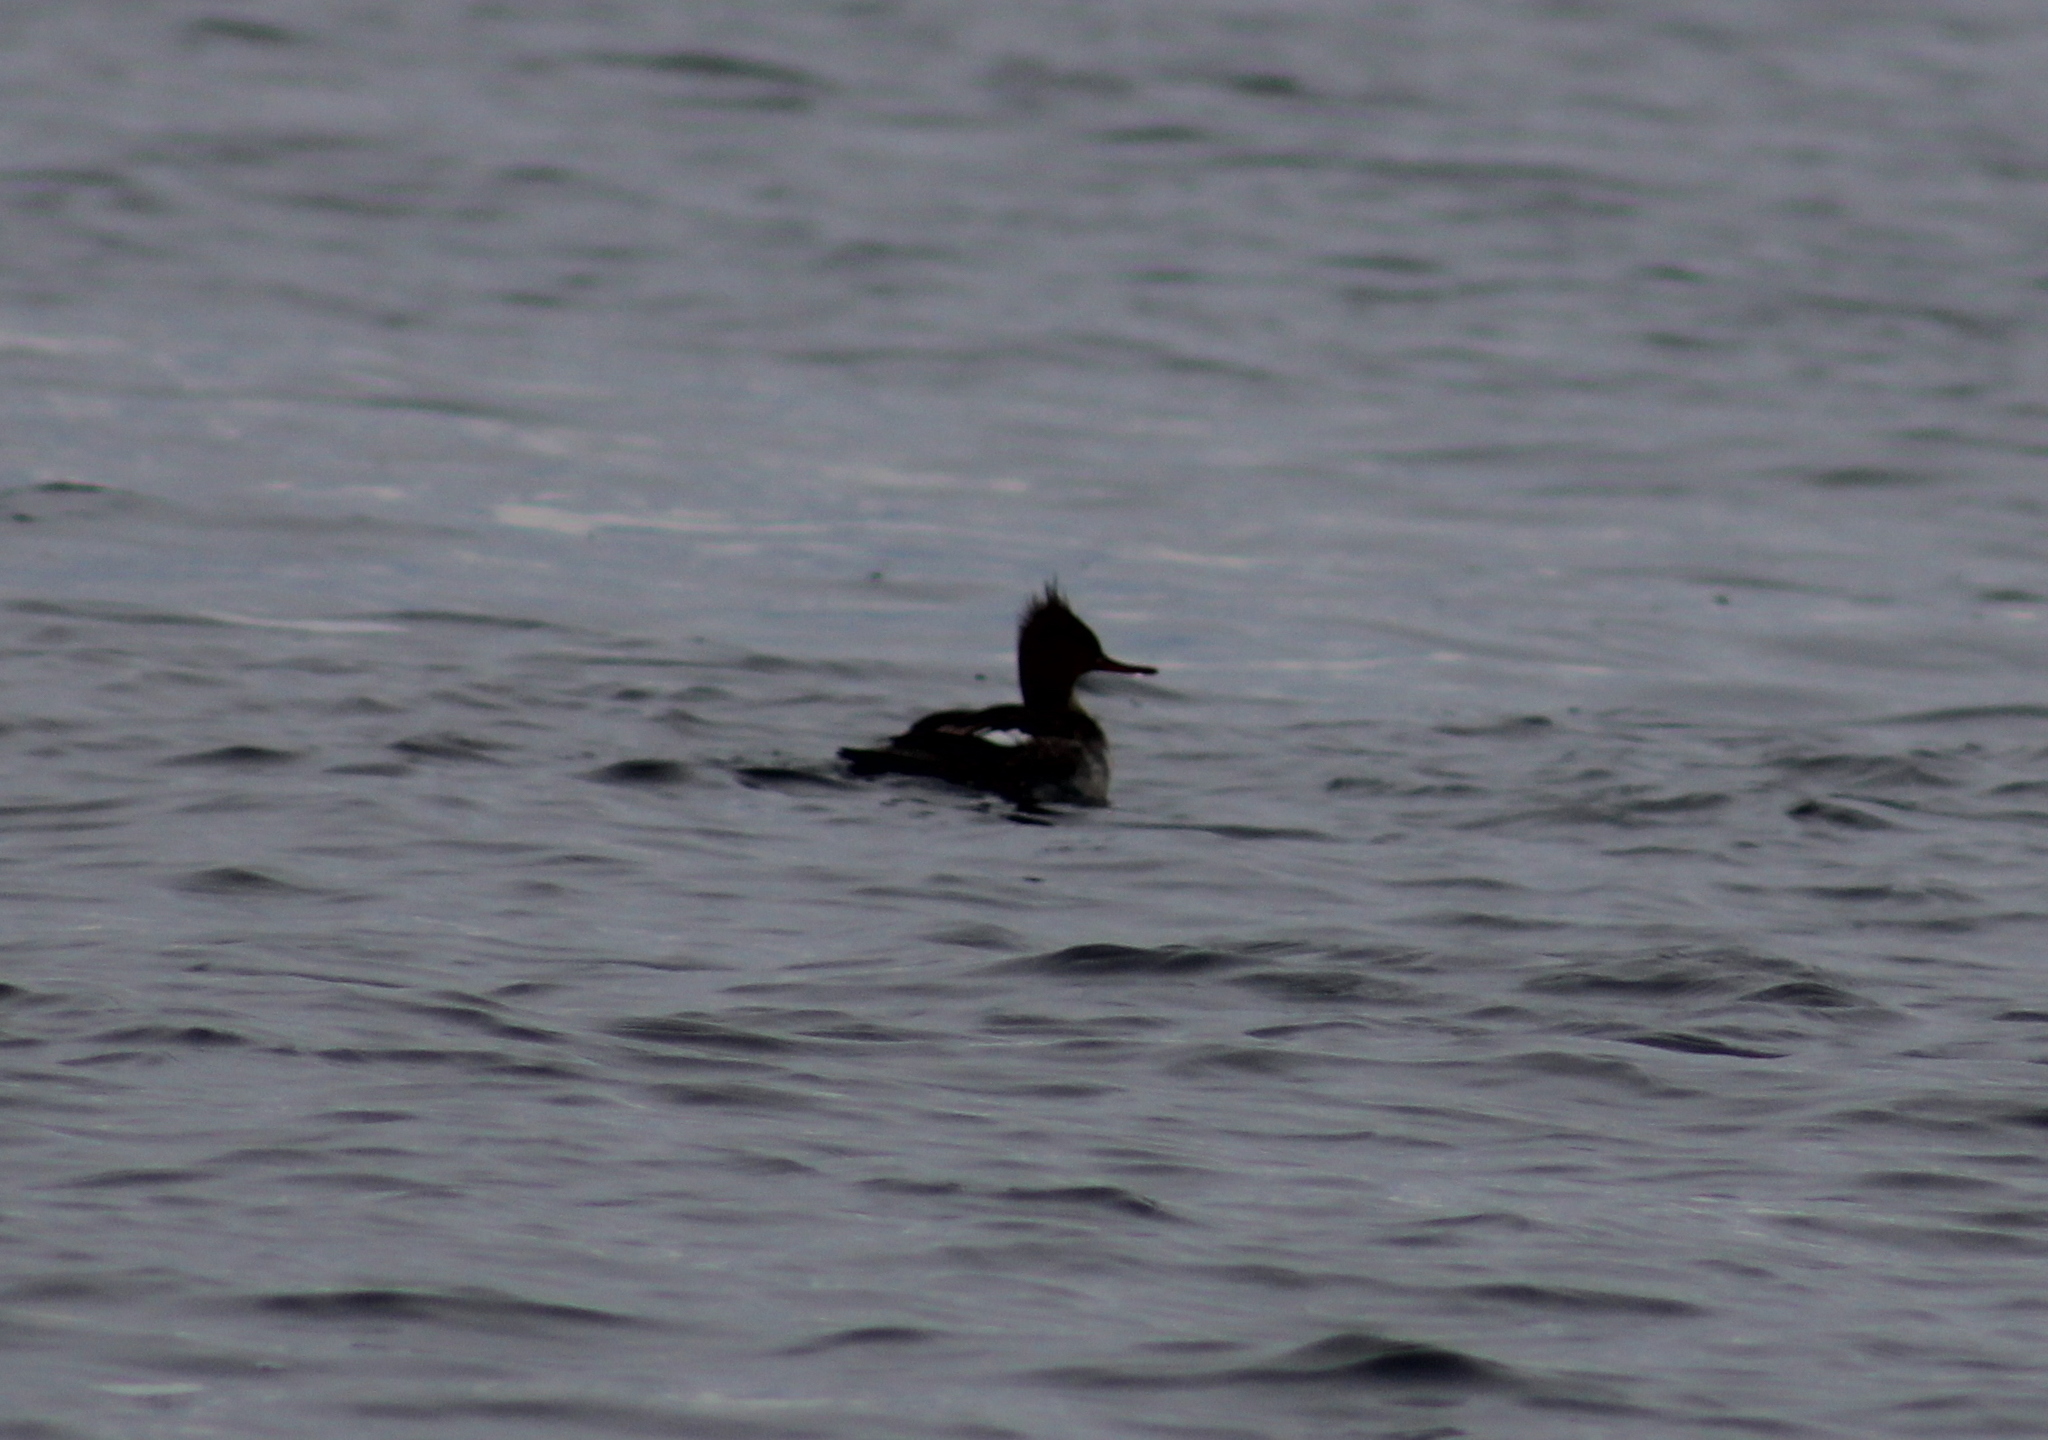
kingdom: Animalia
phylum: Chordata
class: Aves
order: Anseriformes
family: Anatidae
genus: Mergus
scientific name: Mergus serrator
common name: Red-breasted merganser
